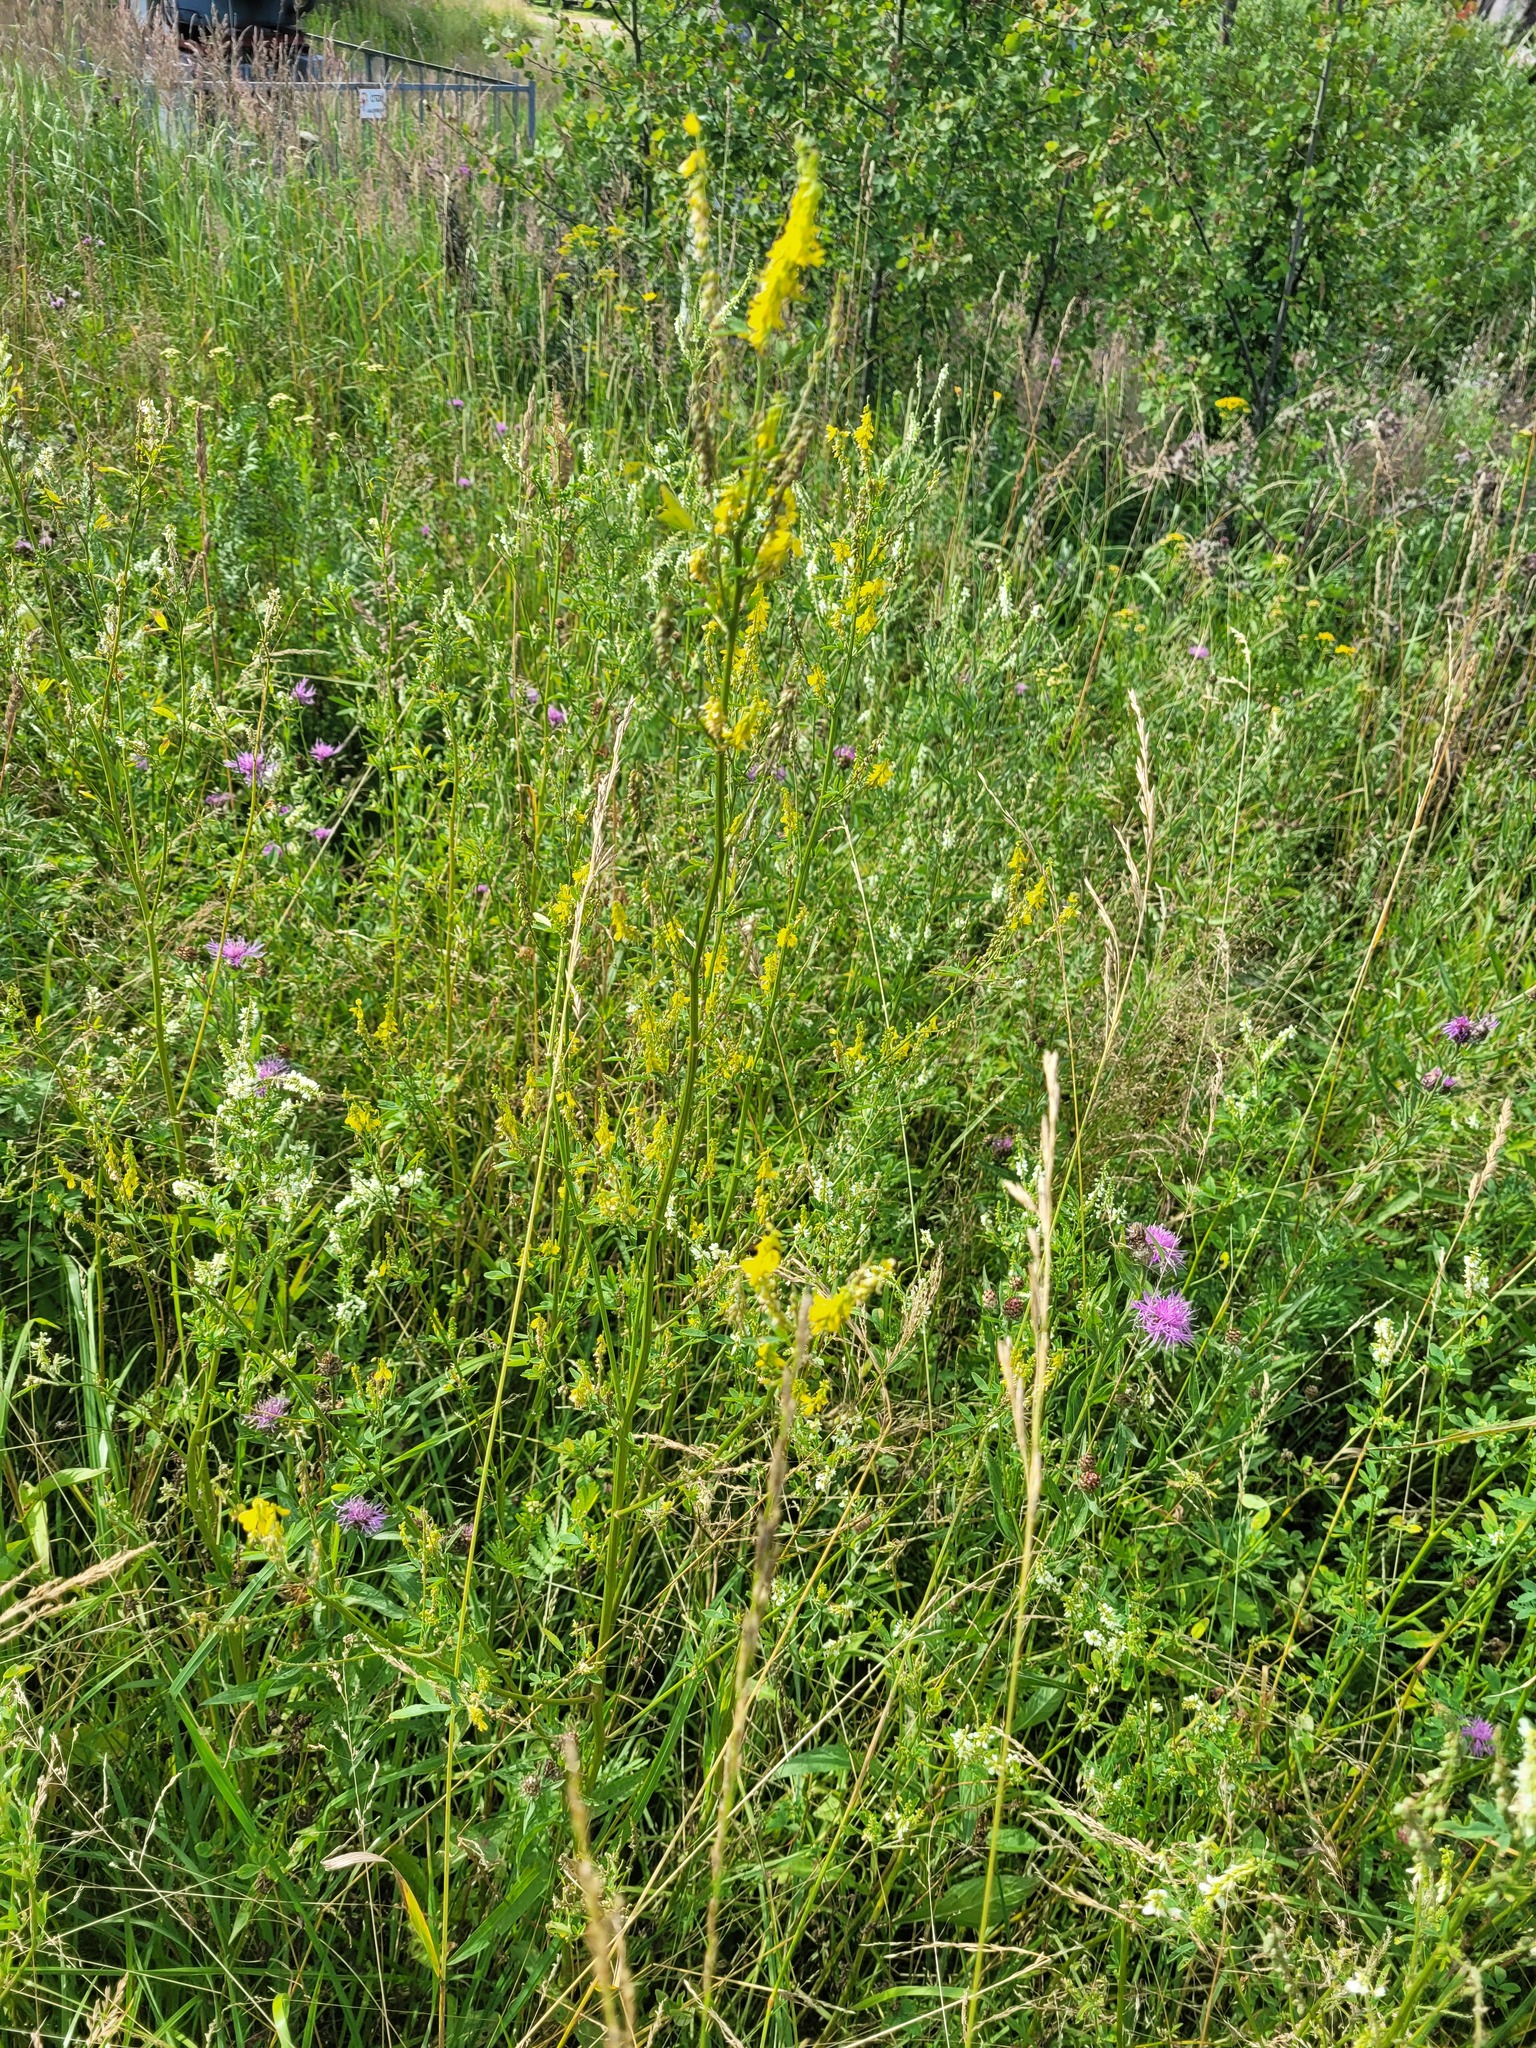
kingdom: Plantae
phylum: Tracheophyta
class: Magnoliopsida
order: Fabales
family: Fabaceae
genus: Melilotus
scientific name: Melilotus officinalis
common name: Sweetclover
